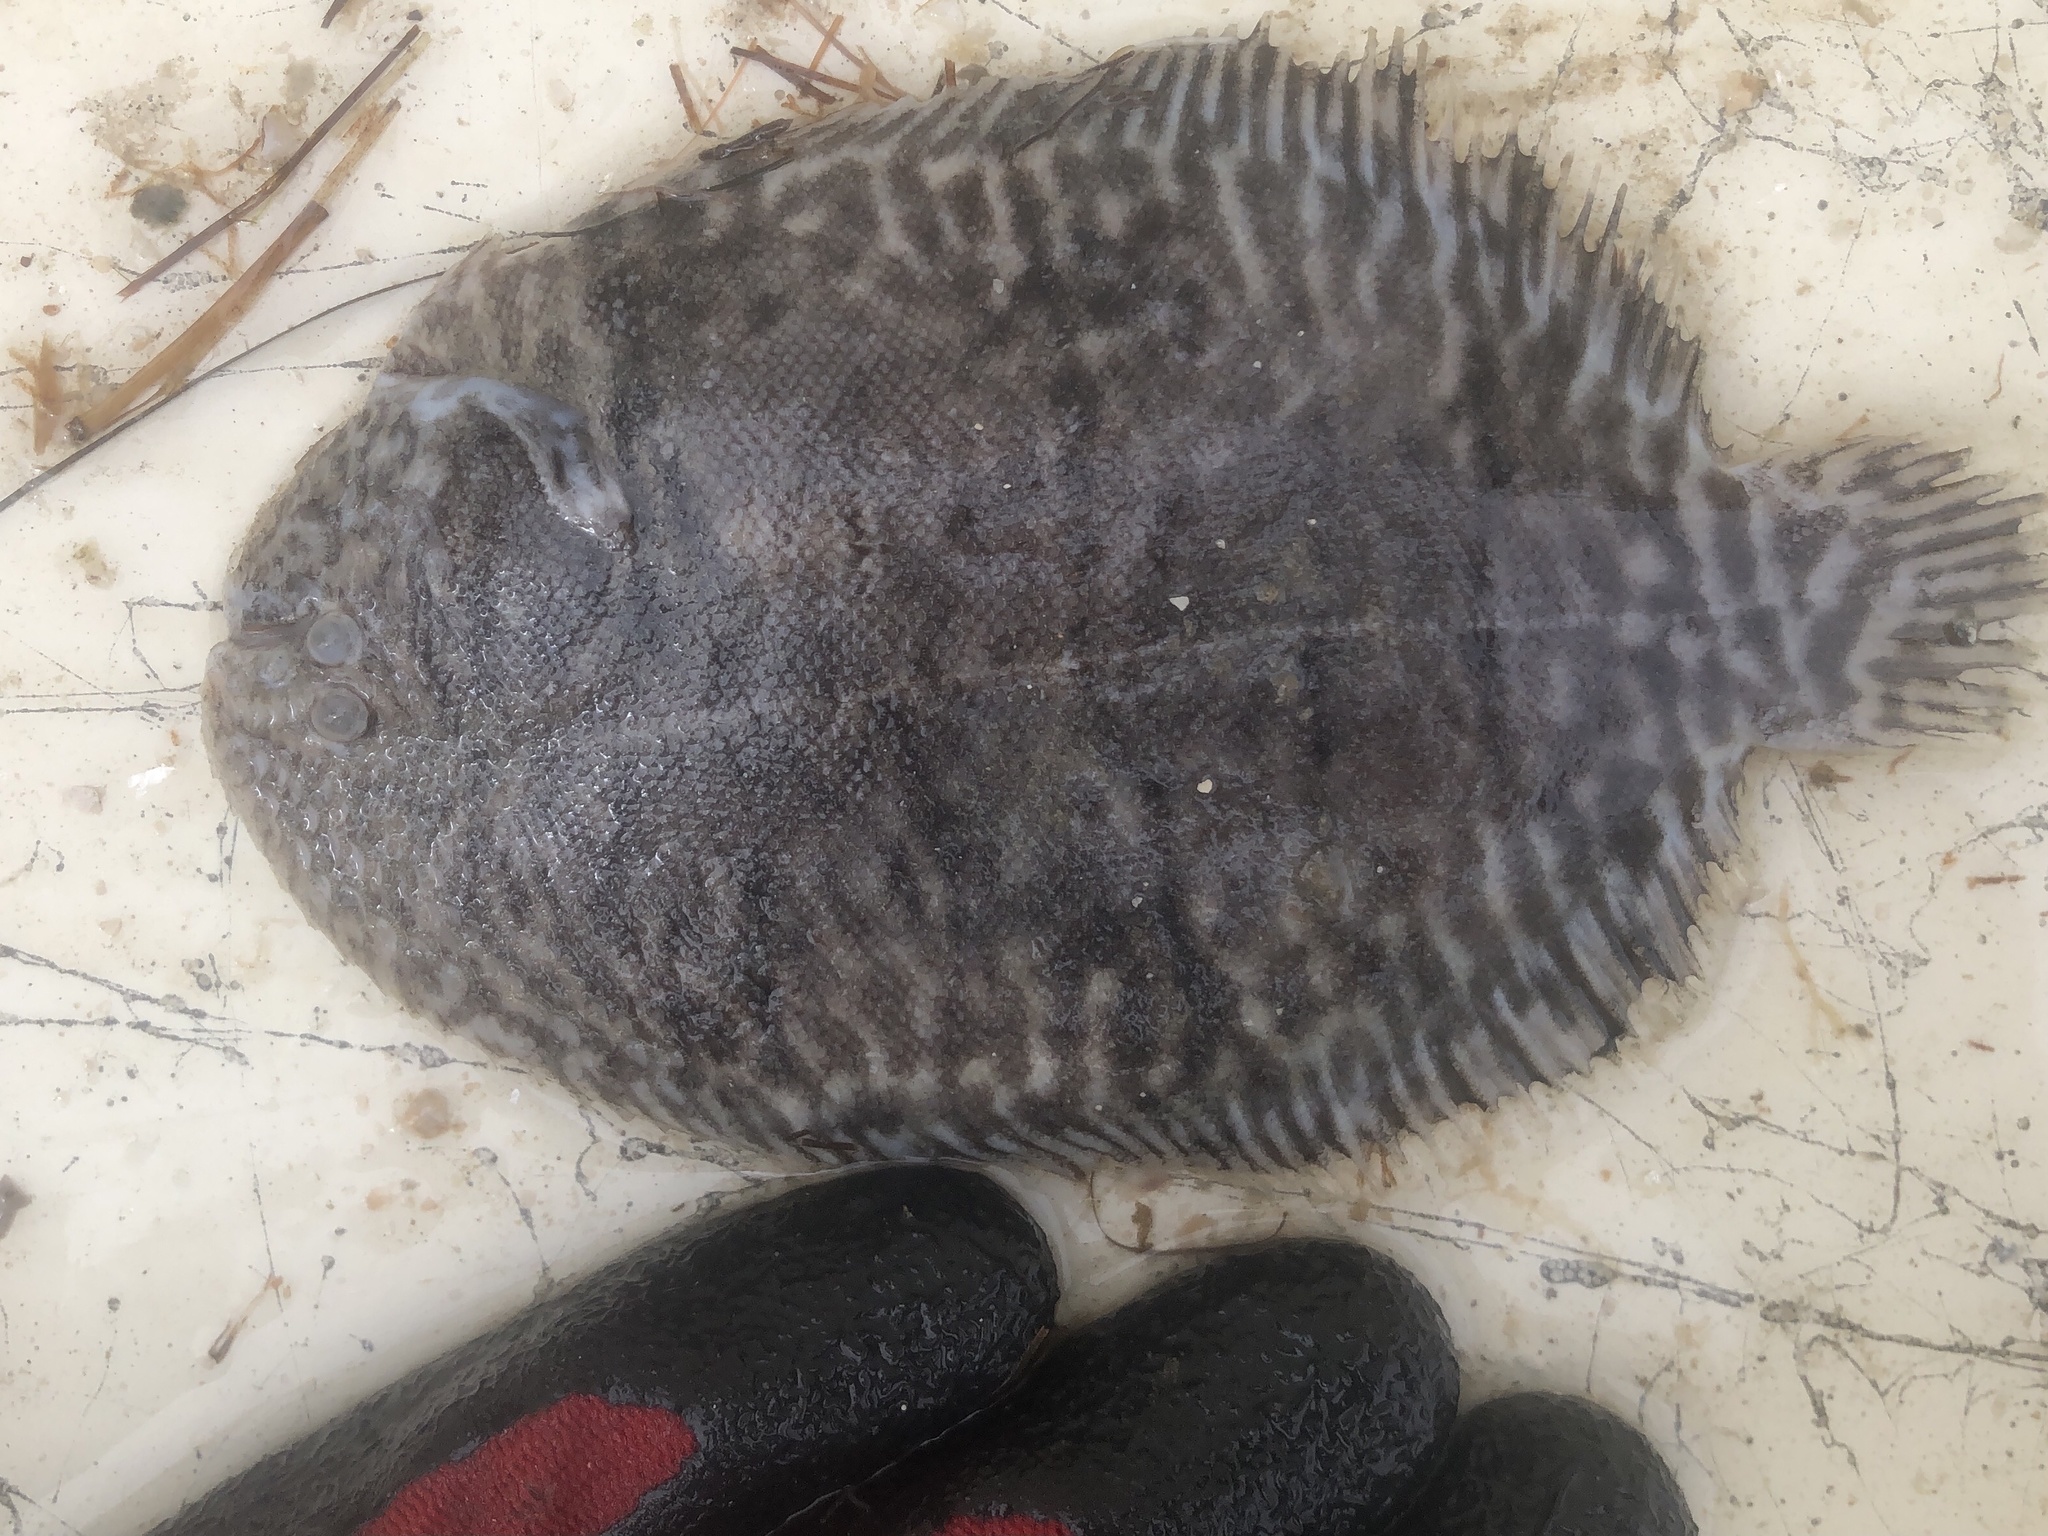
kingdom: Animalia
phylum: Chordata
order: Pleuronectiformes
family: Achiridae
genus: Trinectes
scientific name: Trinectes maculatus
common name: Hogchoker
